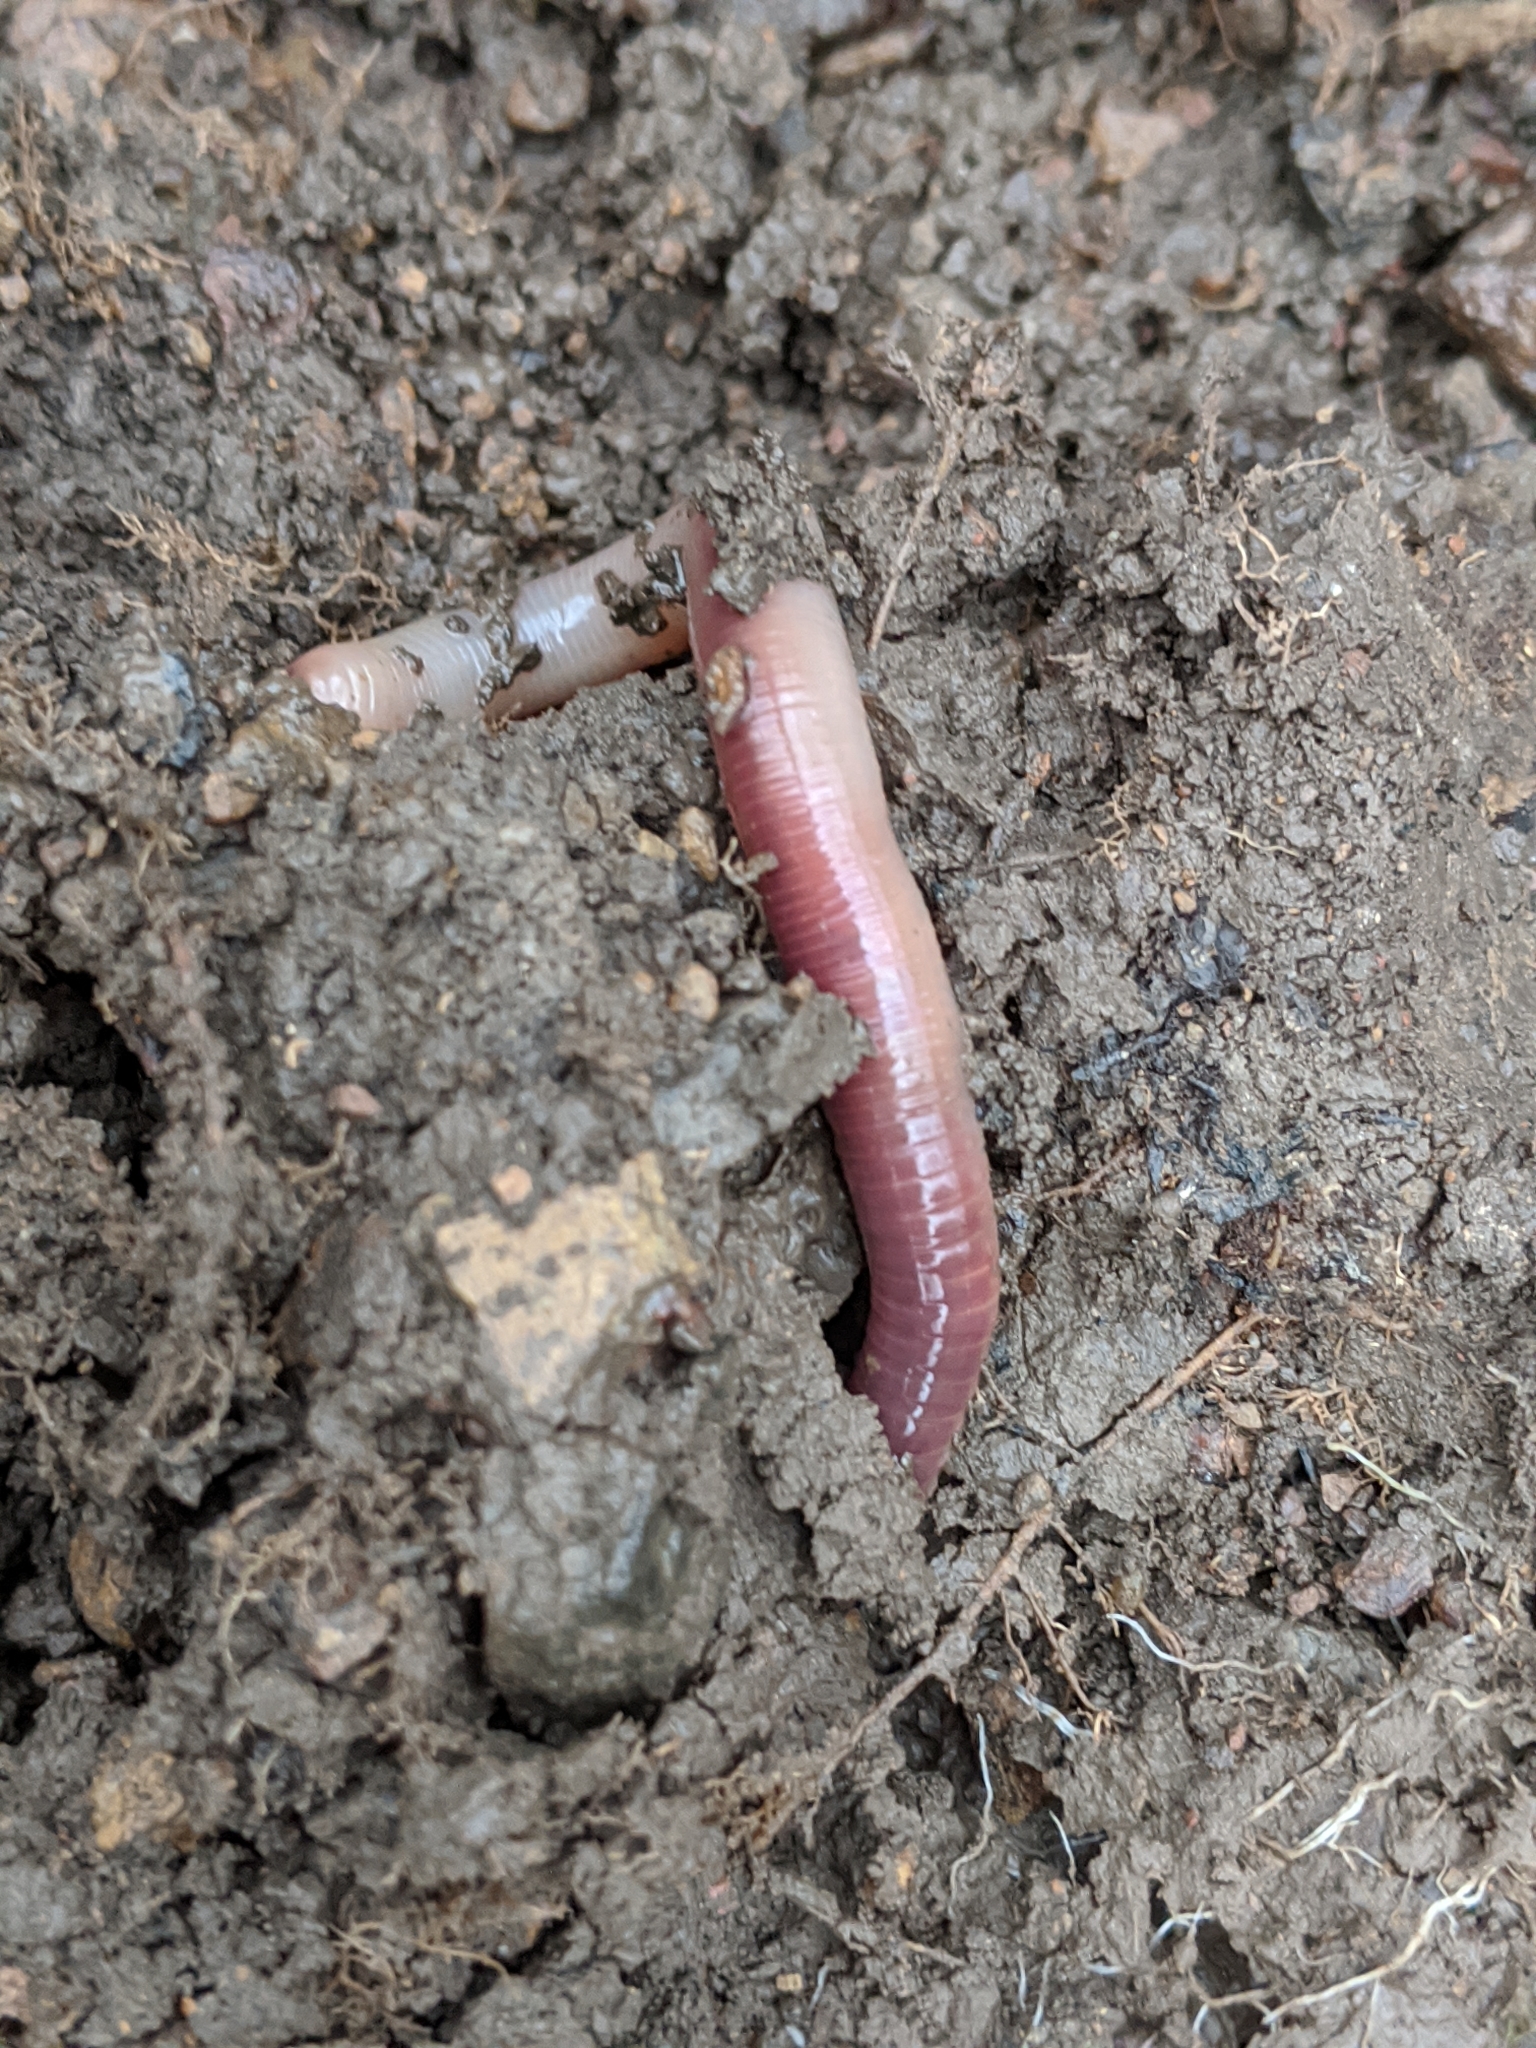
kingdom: Animalia
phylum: Annelida
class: Clitellata
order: Crassiclitellata
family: Lumbricidae
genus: Lumbricus
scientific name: Lumbricus terrestris
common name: Common earthworm
